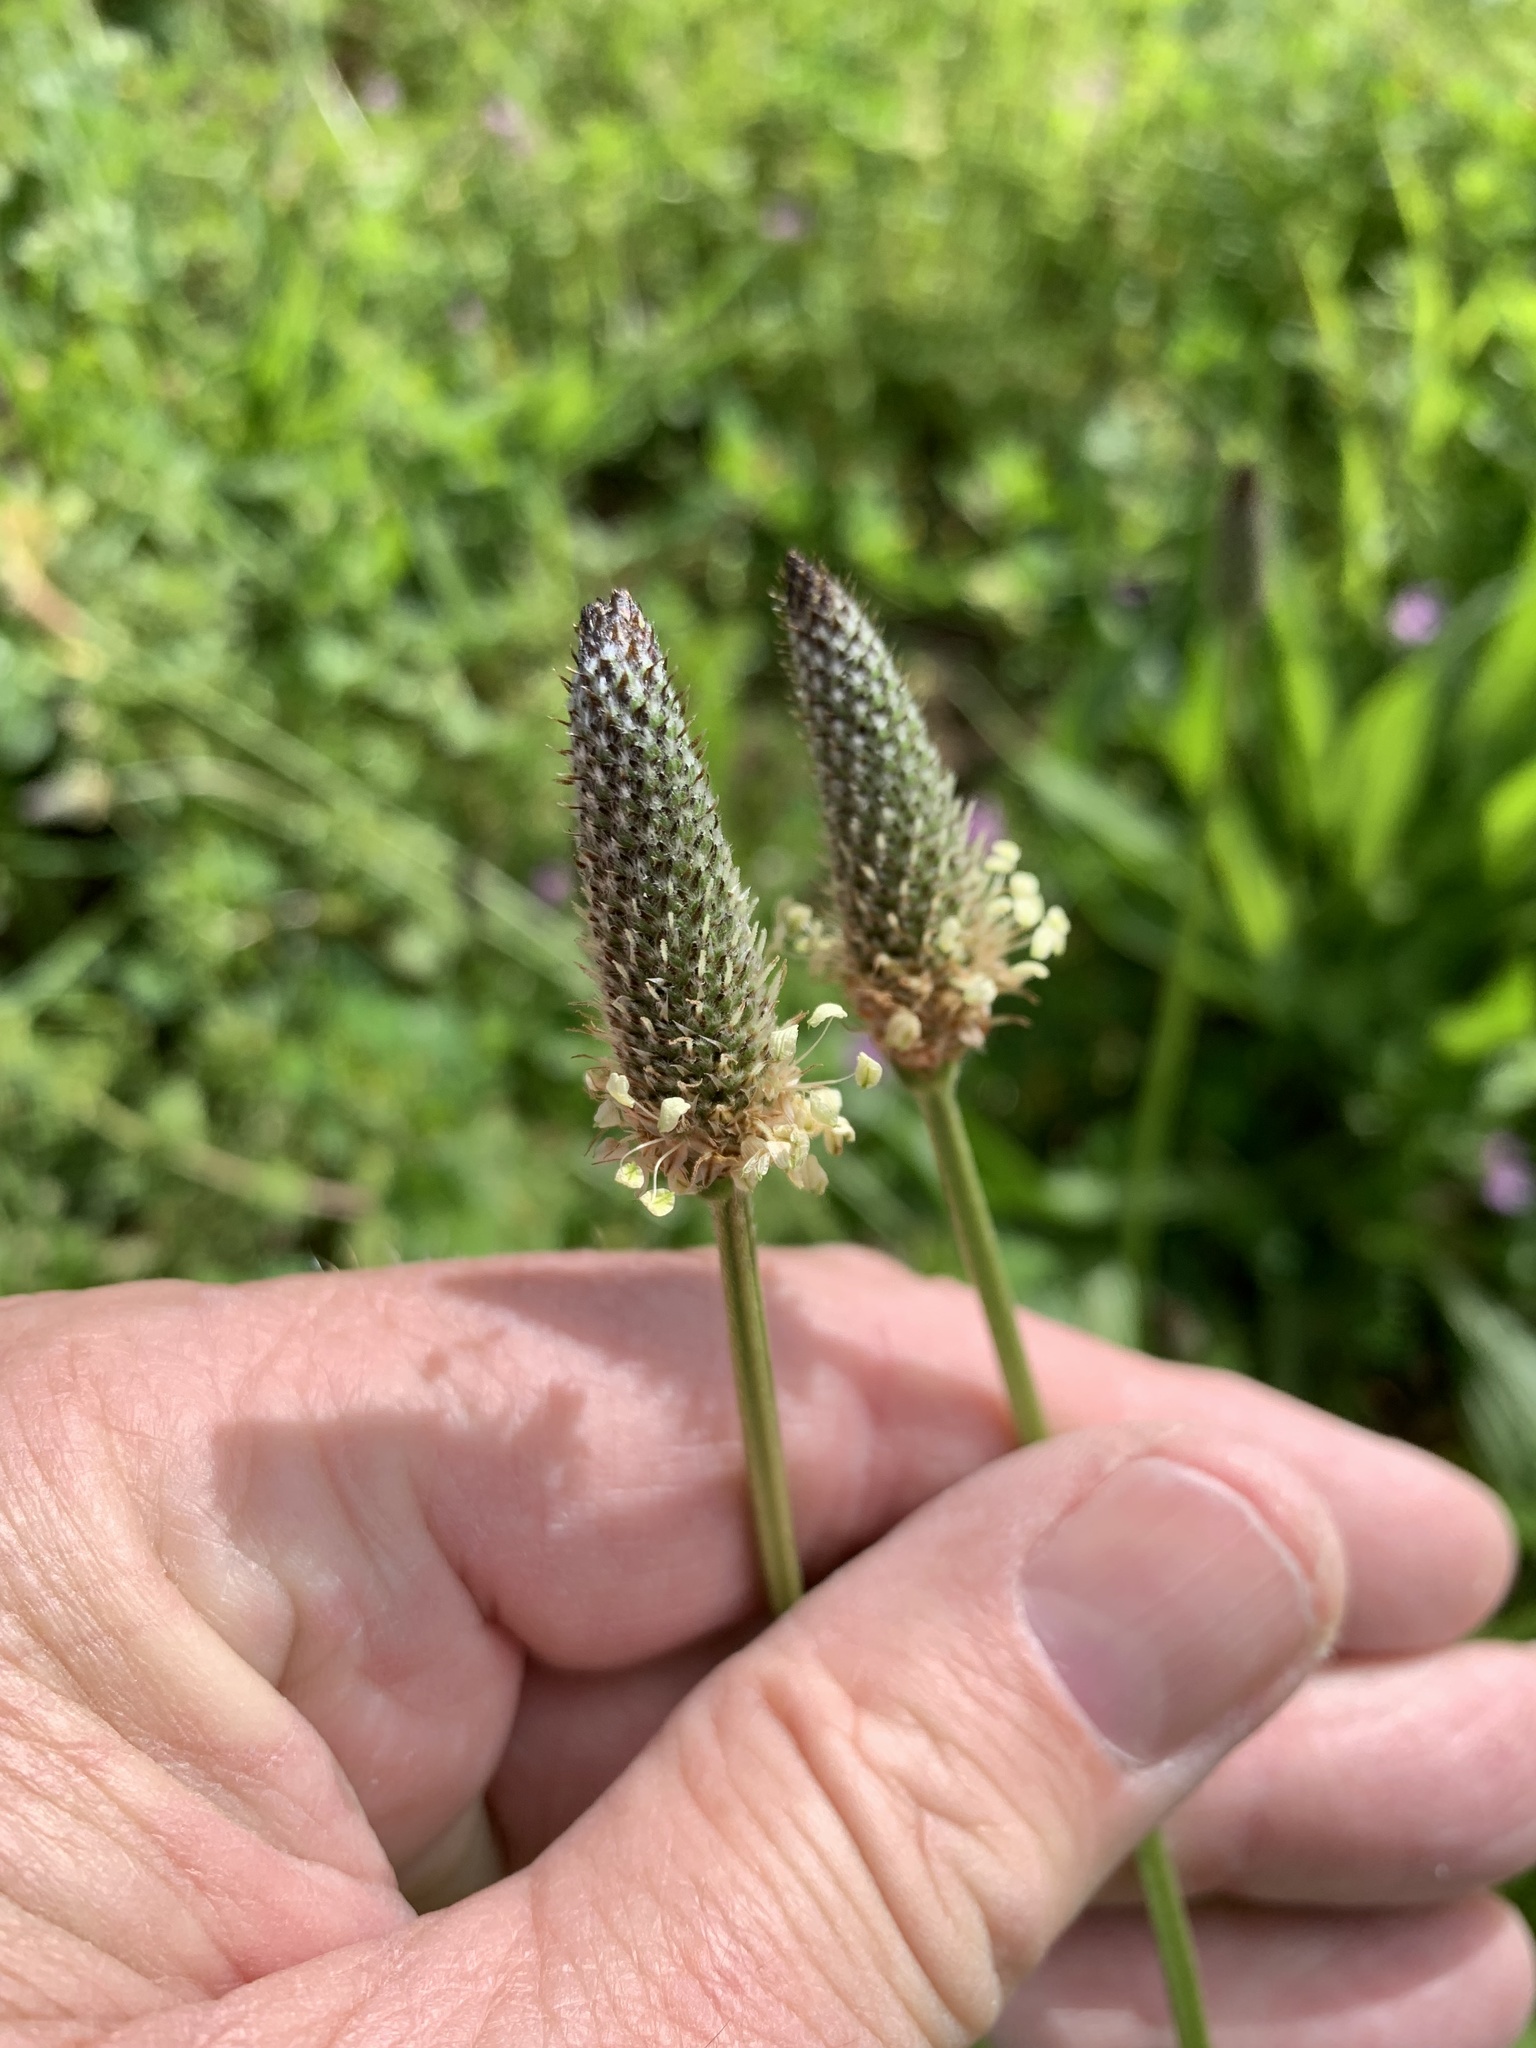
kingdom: Plantae
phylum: Tracheophyta
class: Magnoliopsida
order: Lamiales
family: Plantaginaceae
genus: Plantago
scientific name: Plantago lanceolata
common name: Ribwort plantain
